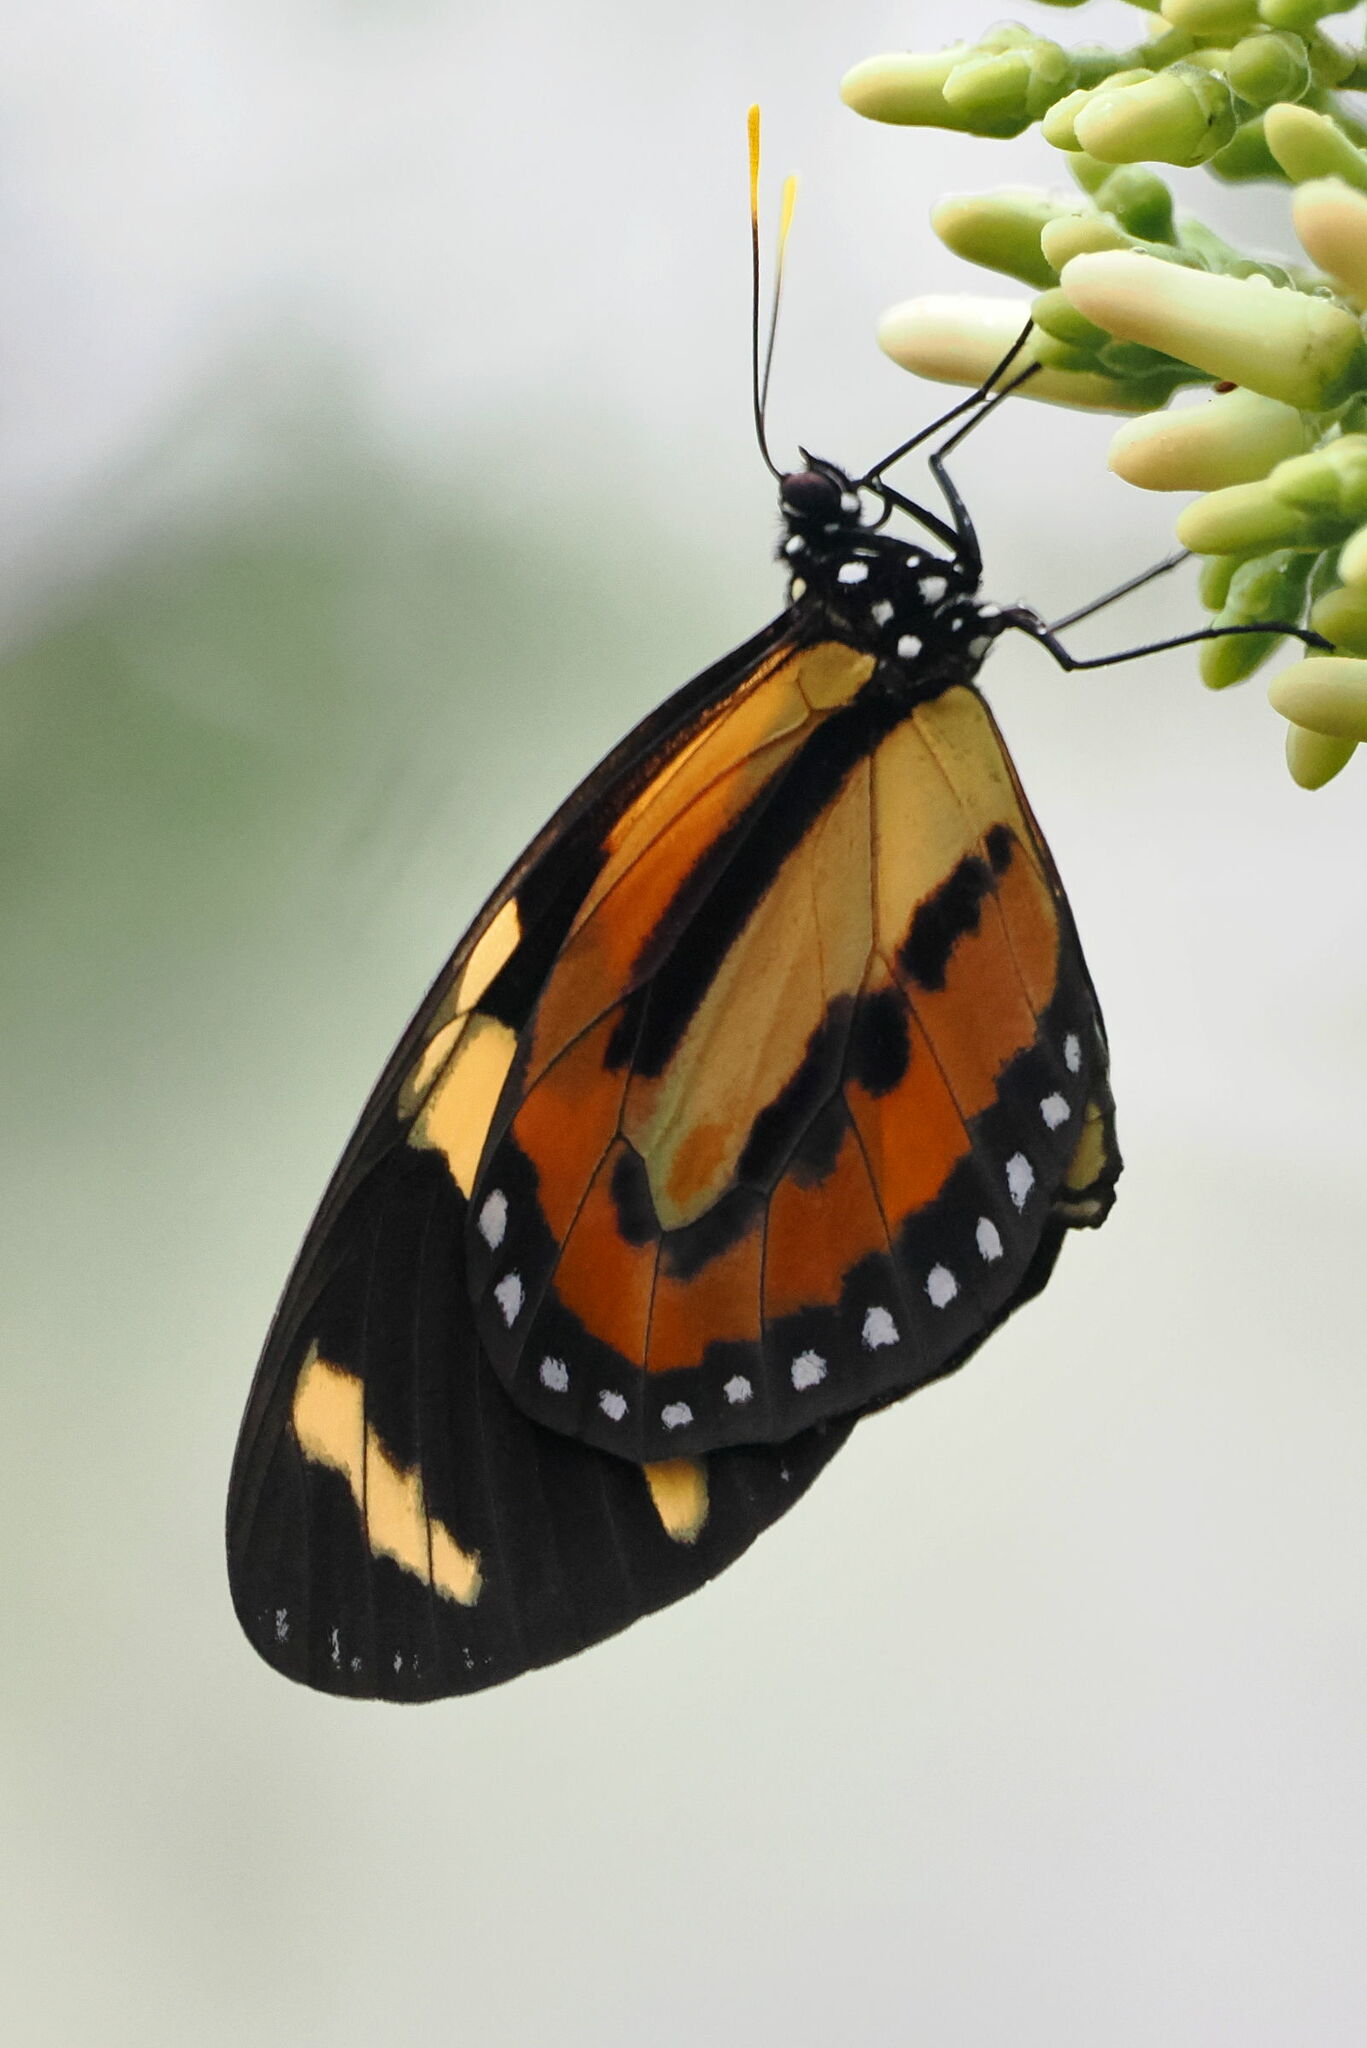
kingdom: Animalia
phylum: Arthropoda
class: Insecta
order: Lepidoptera
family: Nymphalidae
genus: Lycorea
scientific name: Lycorea cleobaea
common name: Tiger mimic-queen
